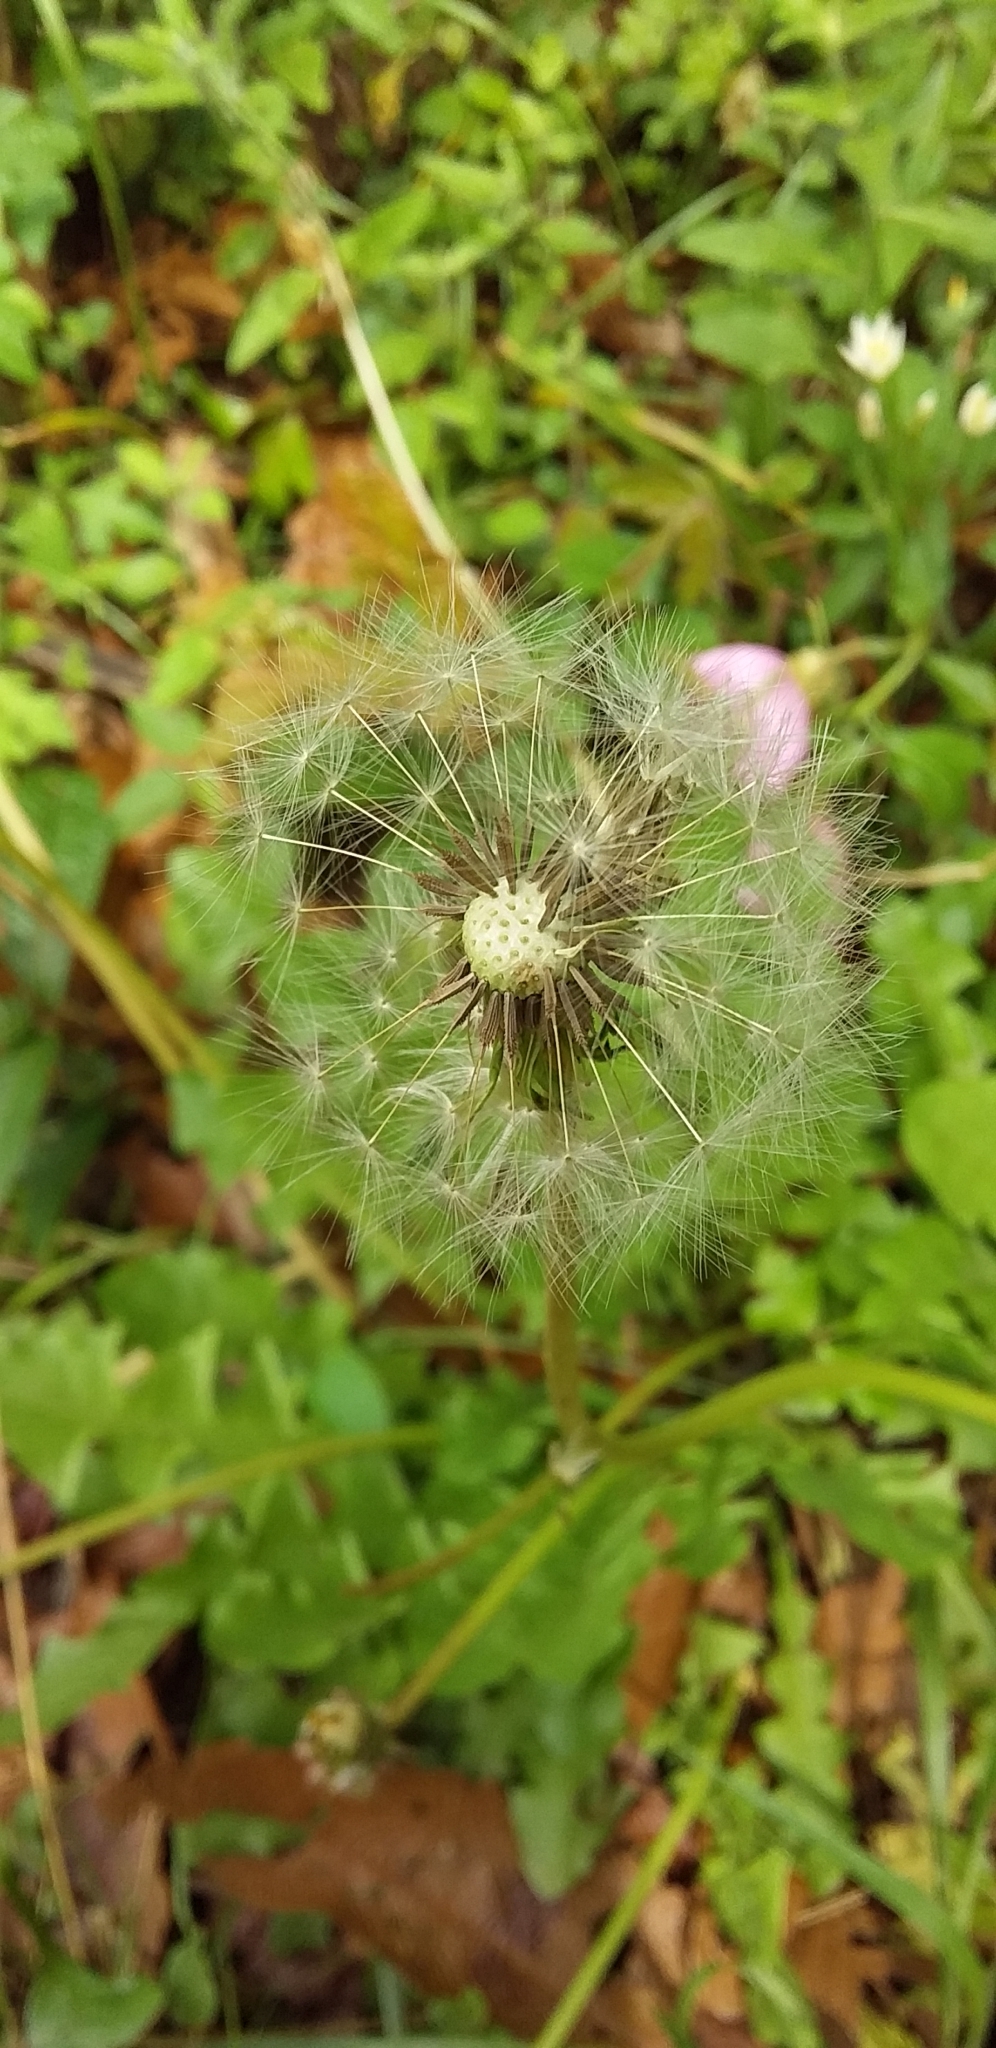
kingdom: Plantae
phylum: Tracheophyta
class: Magnoliopsida
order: Asterales
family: Asteraceae
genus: Taraxacum
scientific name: Taraxacum officinale
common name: Common dandelion
